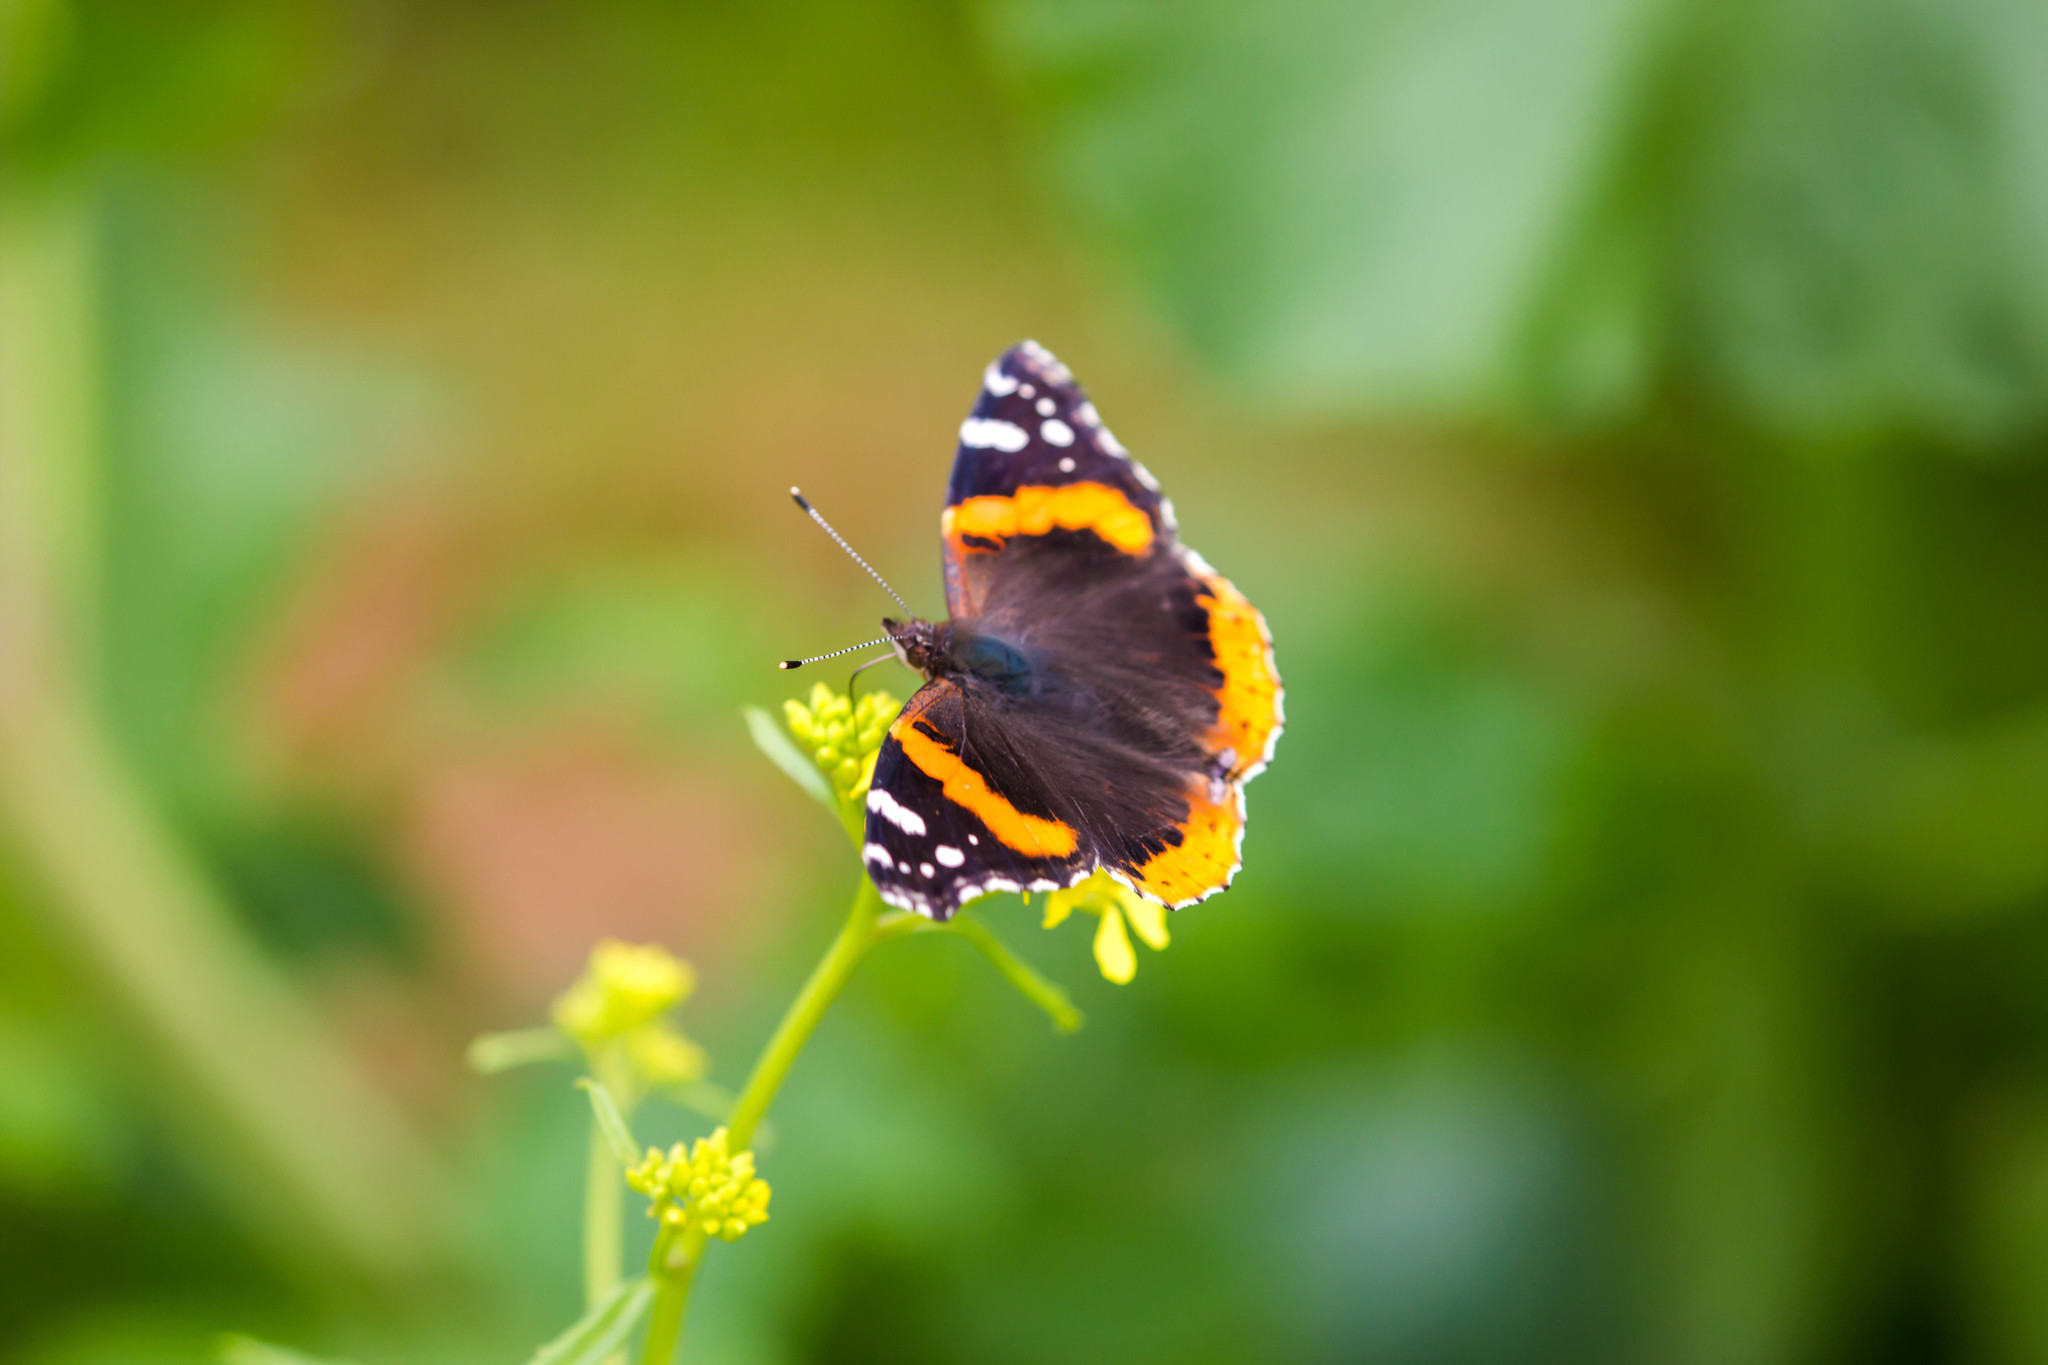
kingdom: Animalia
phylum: Arthropoda
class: Insecta
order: Lepidoptera
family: Nymphalidae
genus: Vanessa
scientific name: Vanessa atalanta
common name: Red admiral
